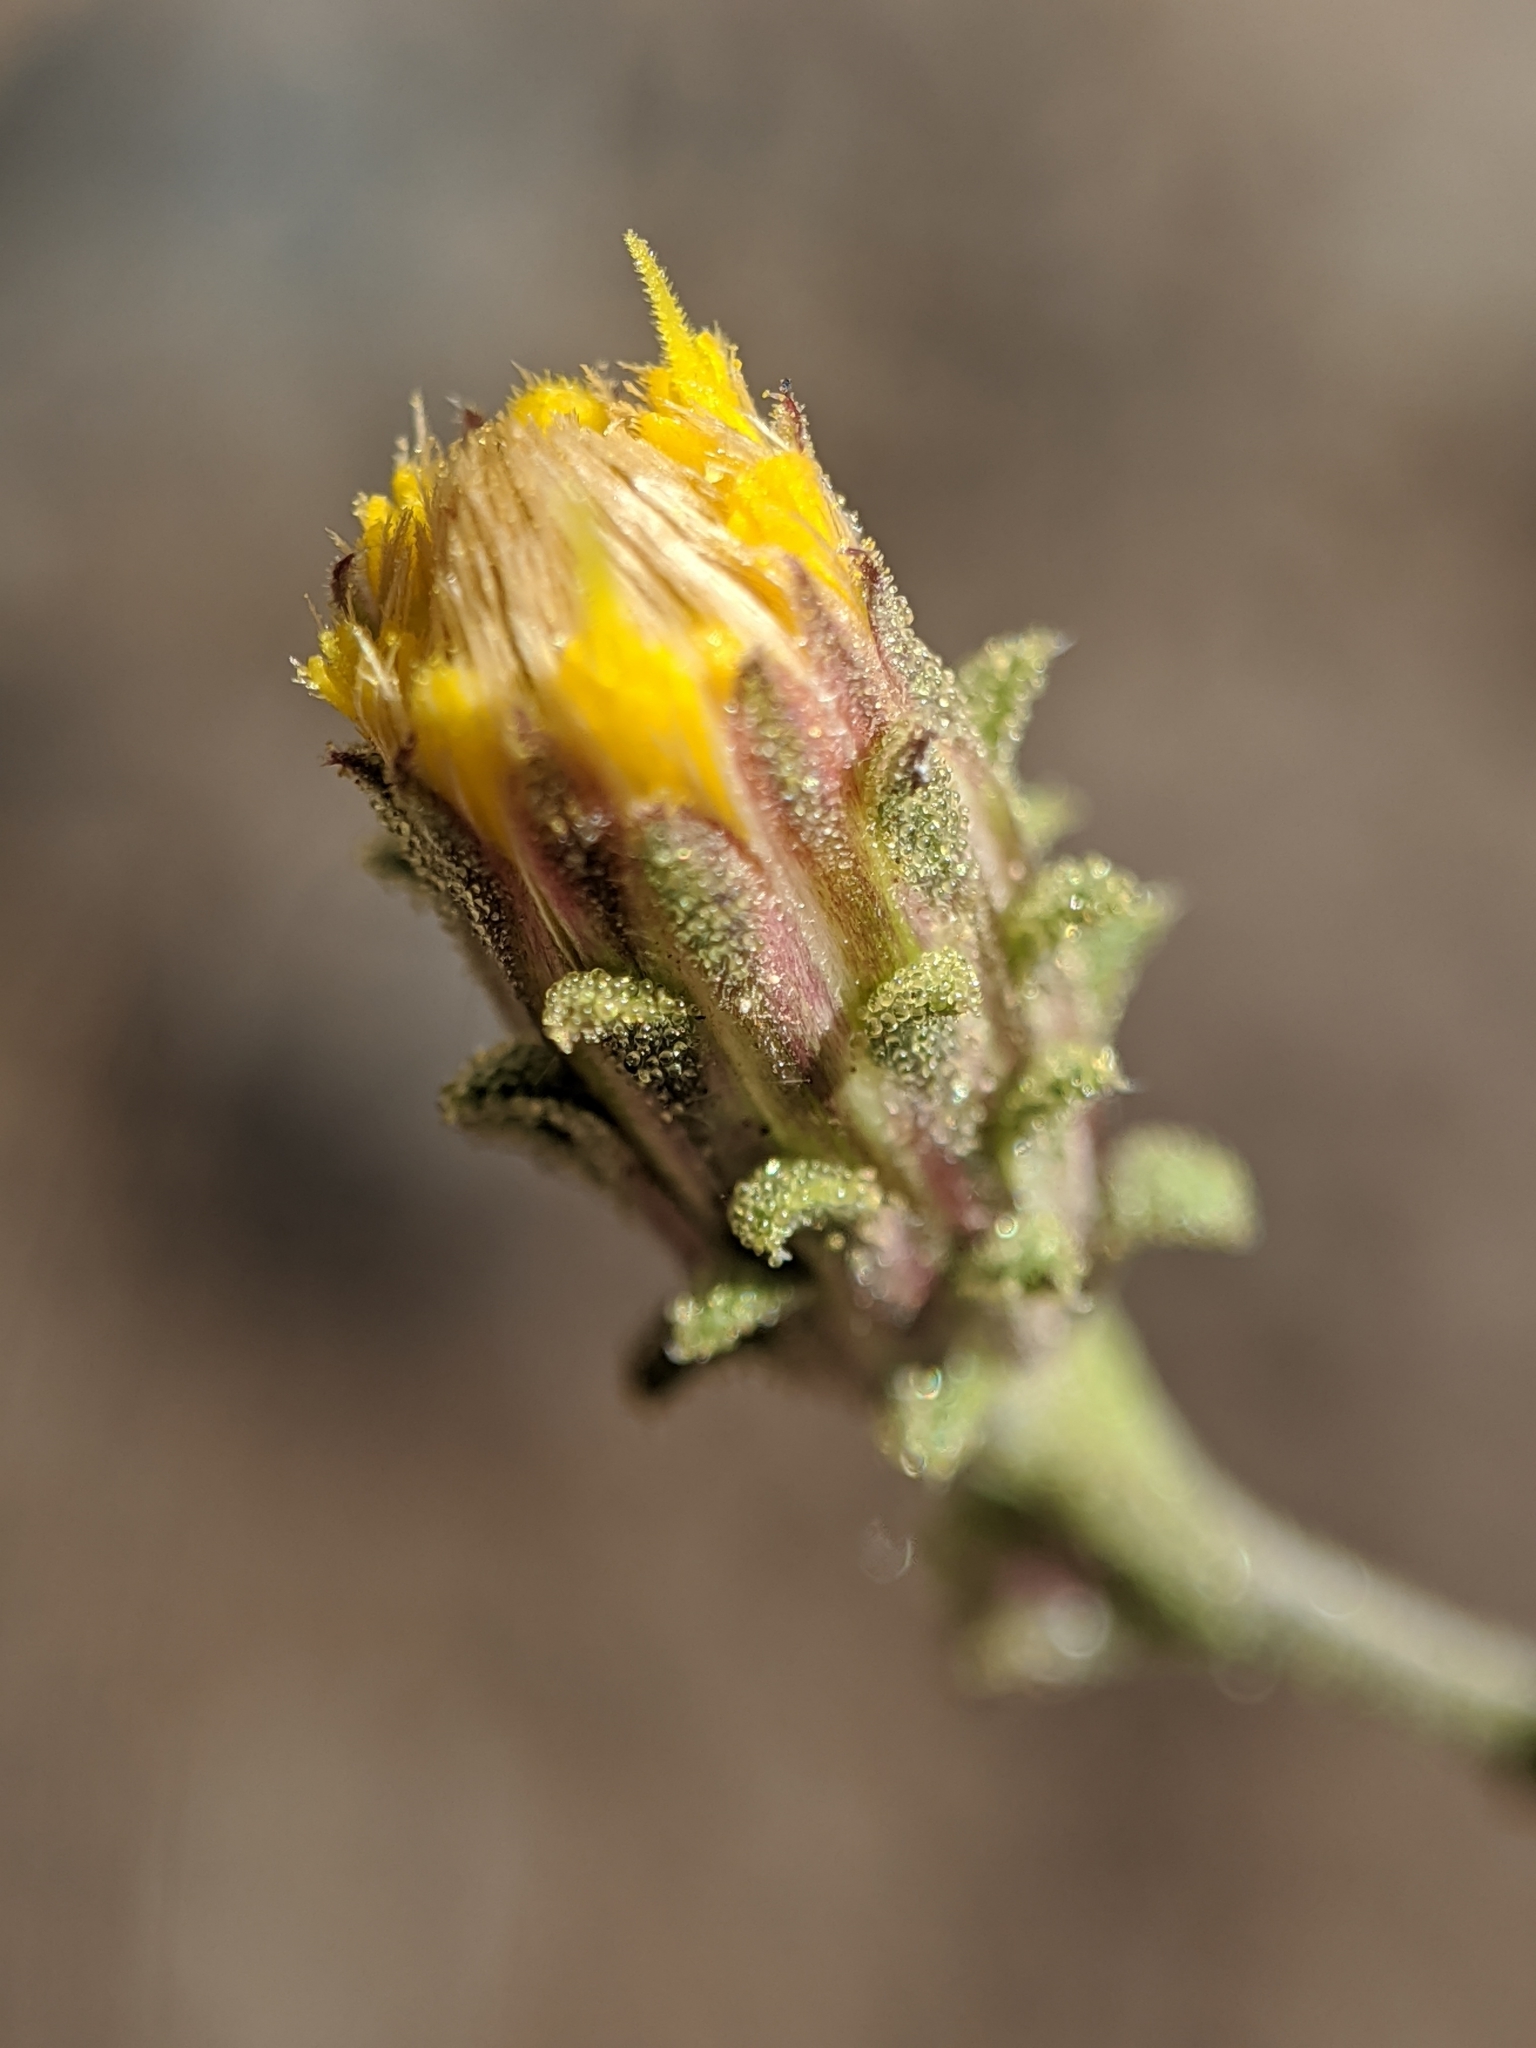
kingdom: Plantae
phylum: Tracheophyta
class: Magnoliopsida
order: Asterales
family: Asteraceae
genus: Dieteria
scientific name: Dieteria shastensis
